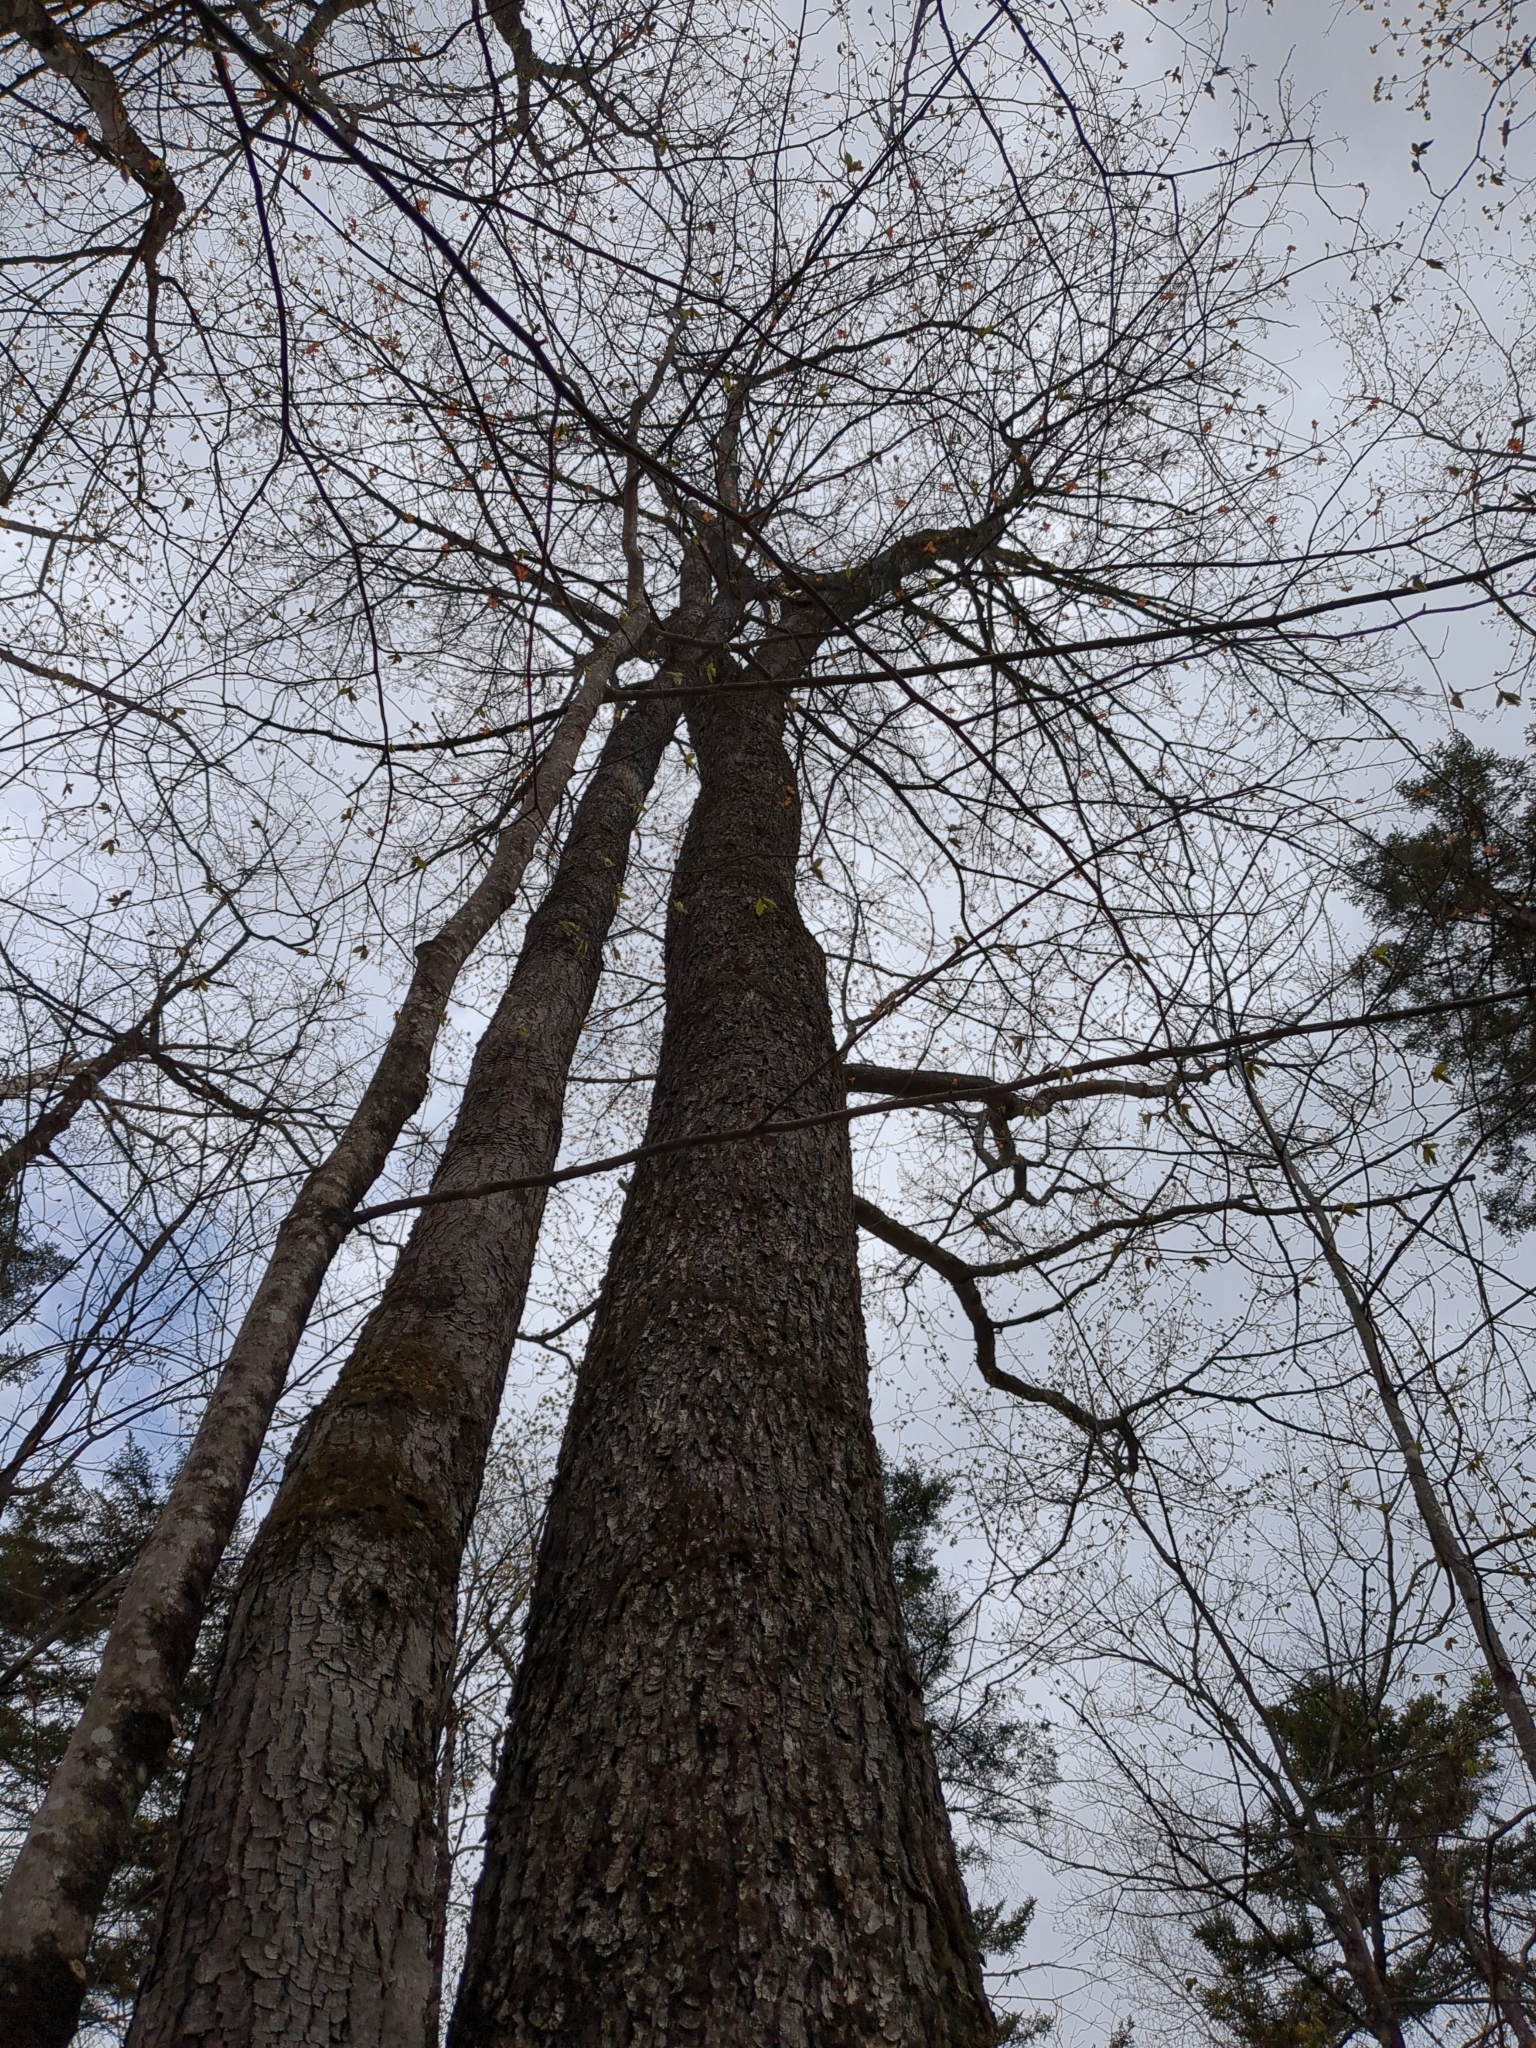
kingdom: Plantae
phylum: Tracheophyta
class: Magnoliopsida
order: Sapindales
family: Sapindaceae
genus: Acer
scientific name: Acer saccharum
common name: Sugar maple
